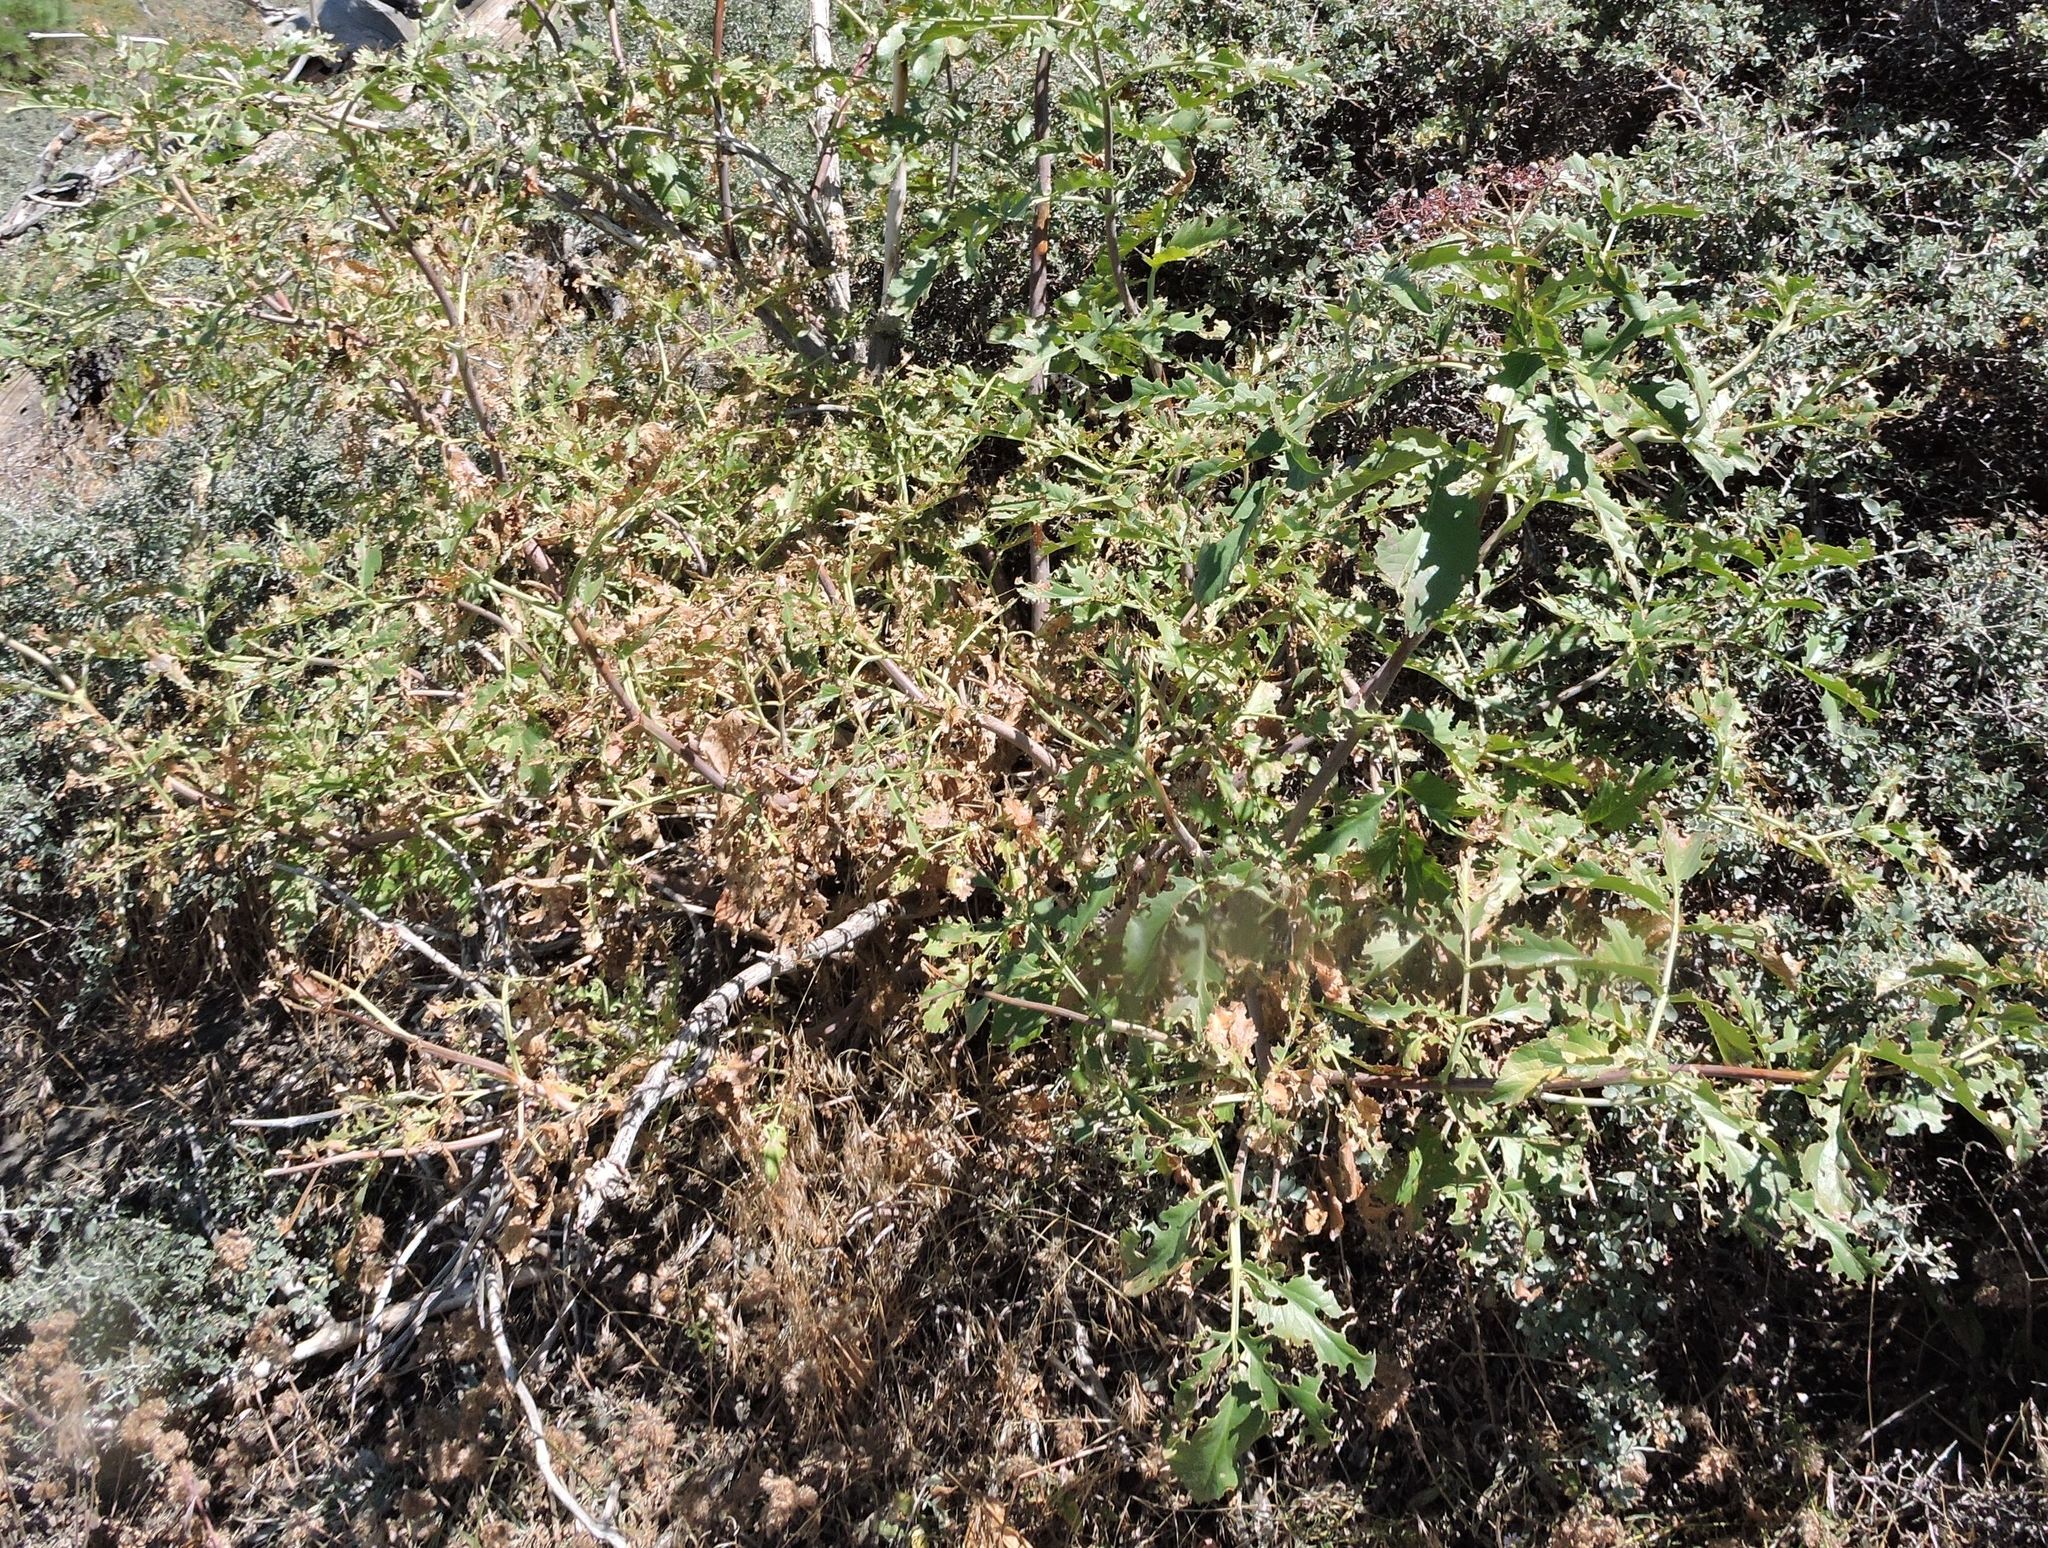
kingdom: Plantae
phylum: Tracheophyta
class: Magnoliopsida
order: Dipsacales
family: Viburnaceae
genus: Sambucus
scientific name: Sambucus cerulea
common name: Blue elder
